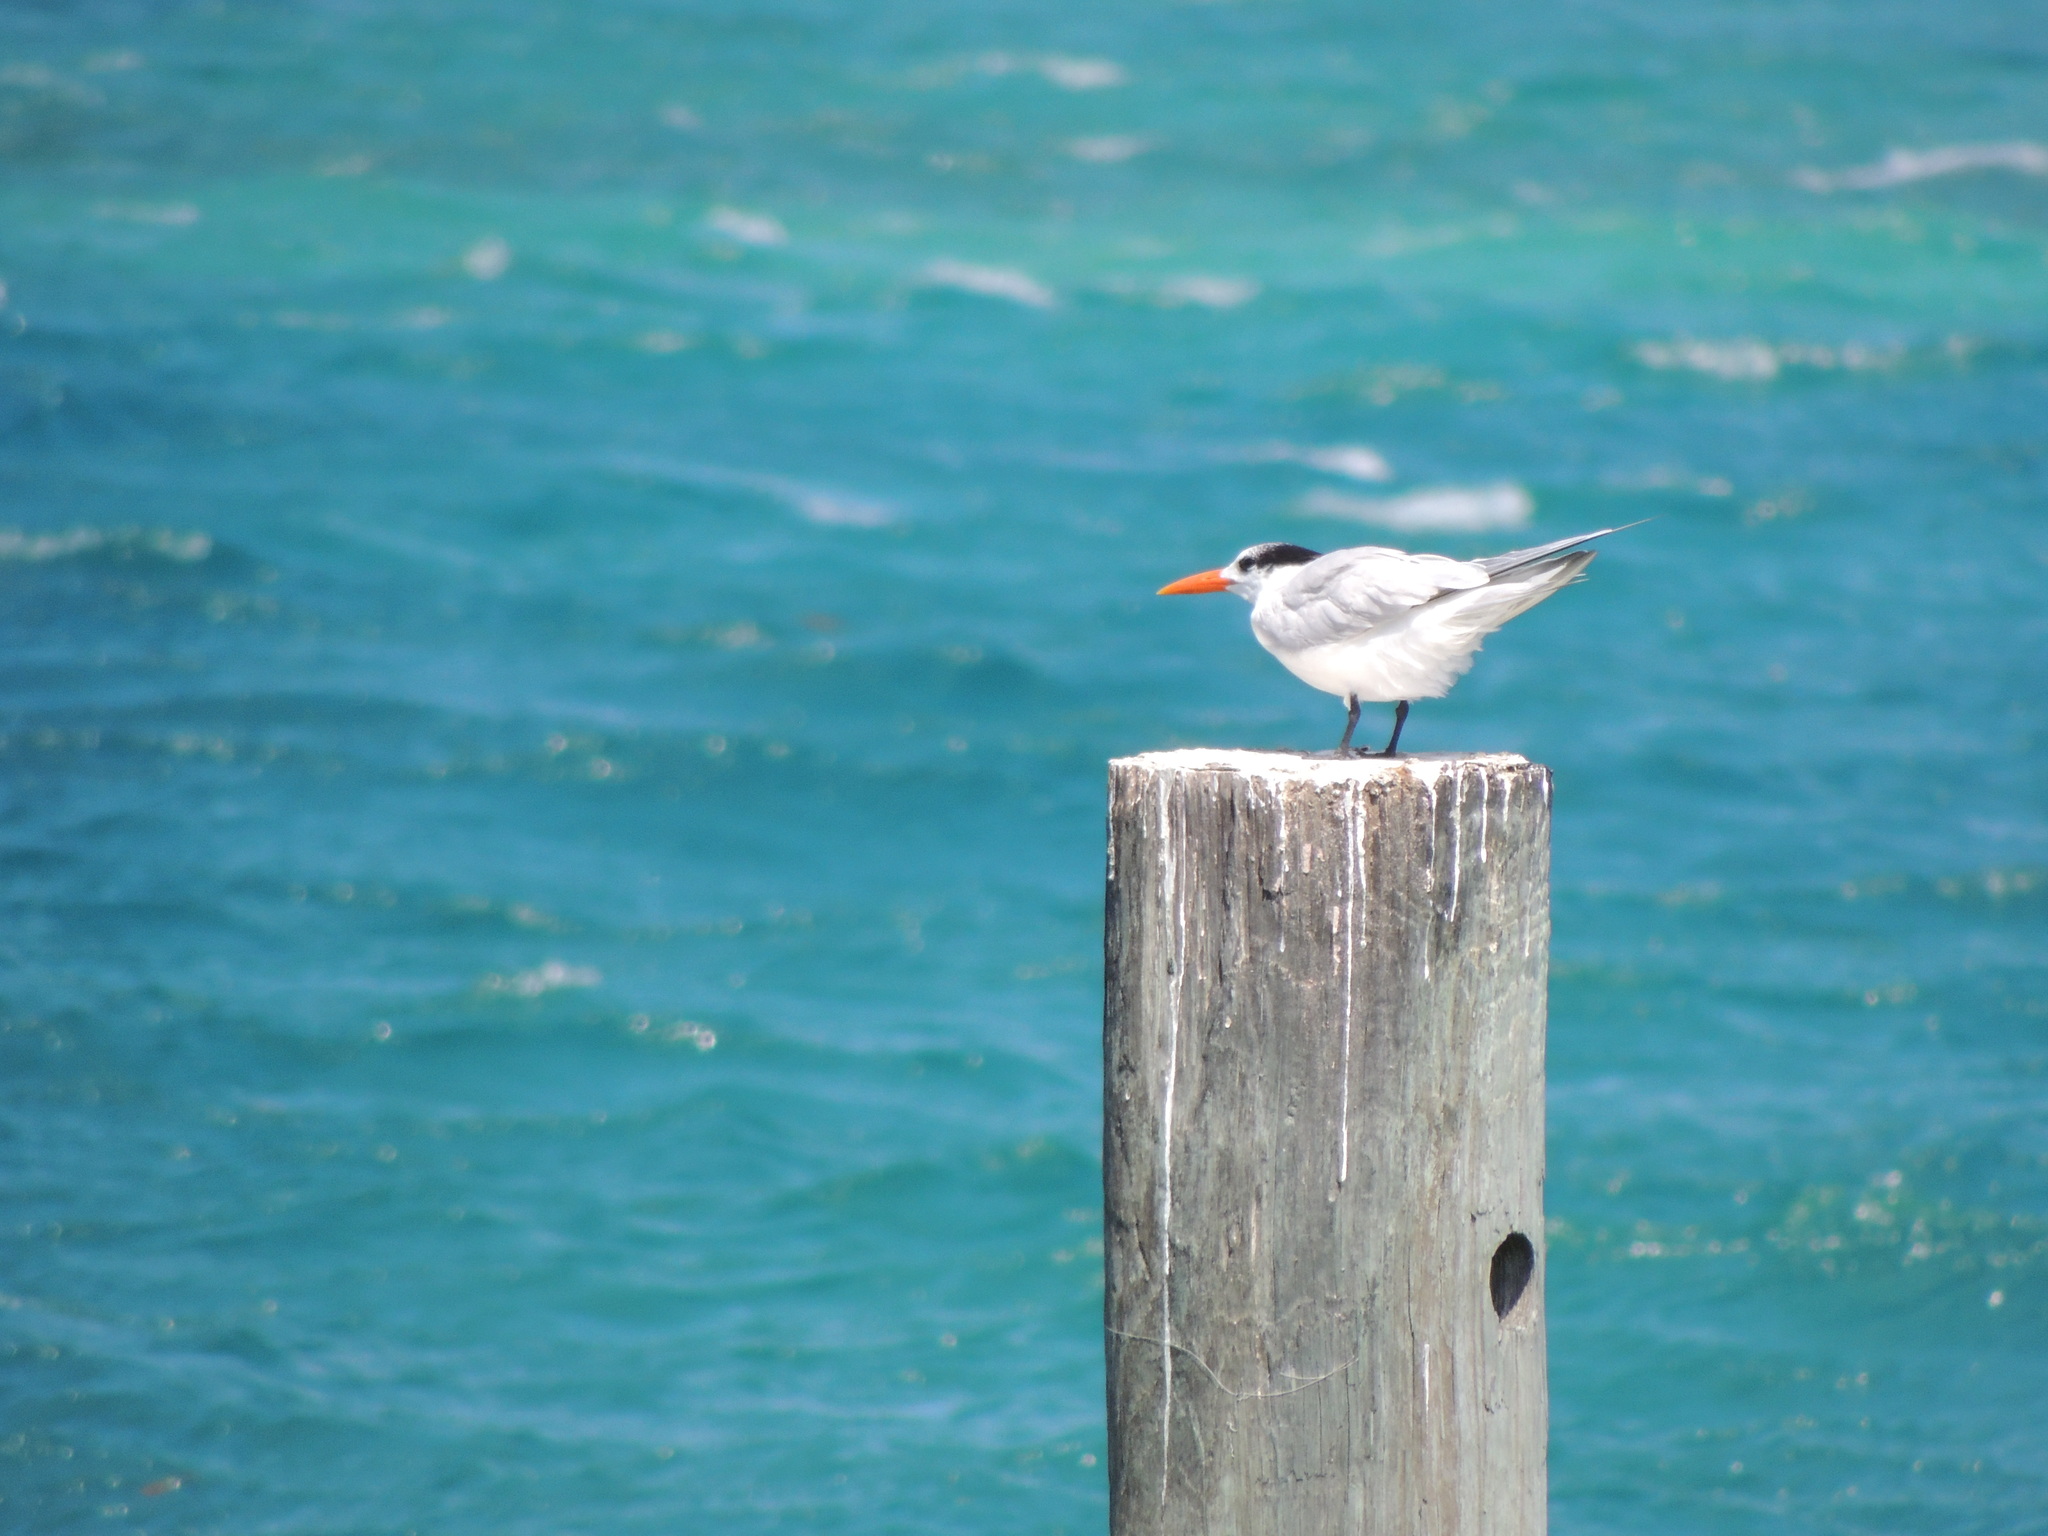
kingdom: Animalia
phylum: Chordata
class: Aves
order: Charadriiformes
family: Laridae
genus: Thalasseus
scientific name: Thalasseus maximus
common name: Royal tern
